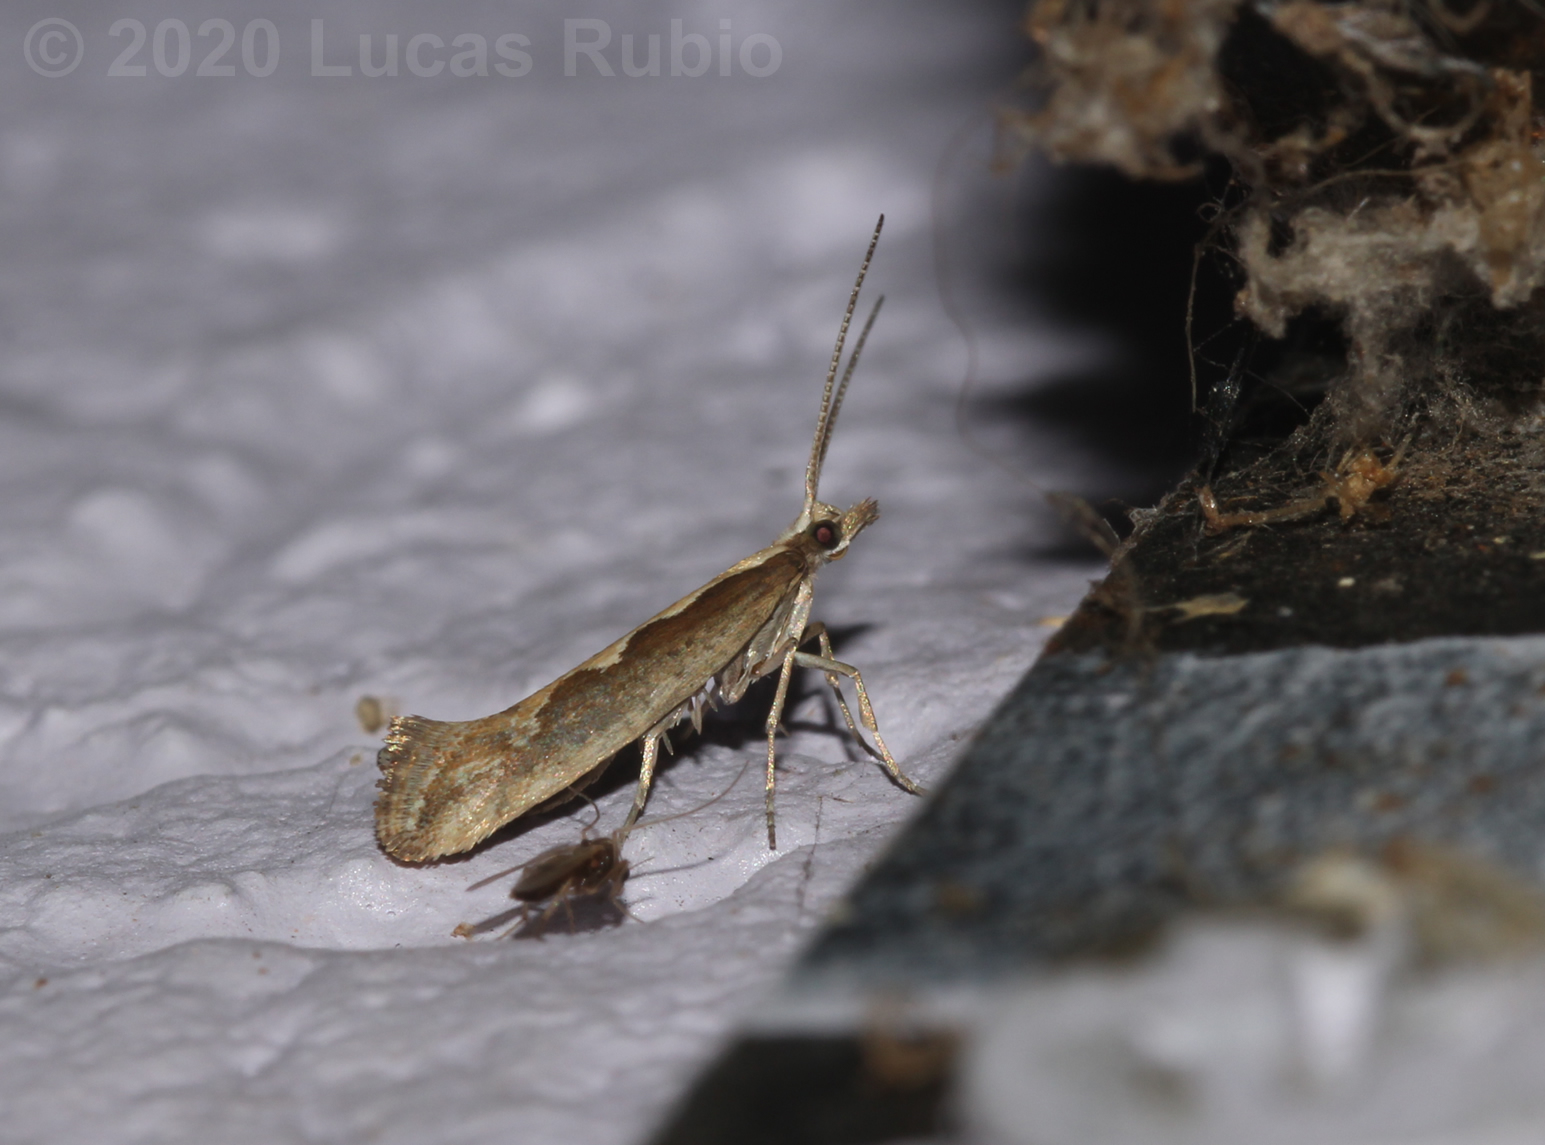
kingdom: Animalia
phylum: Arthropoda
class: Insecta
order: Lepidoptera
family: Plutellidae
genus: Plutella
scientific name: Plutella xylostella
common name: Diamond-back moth
